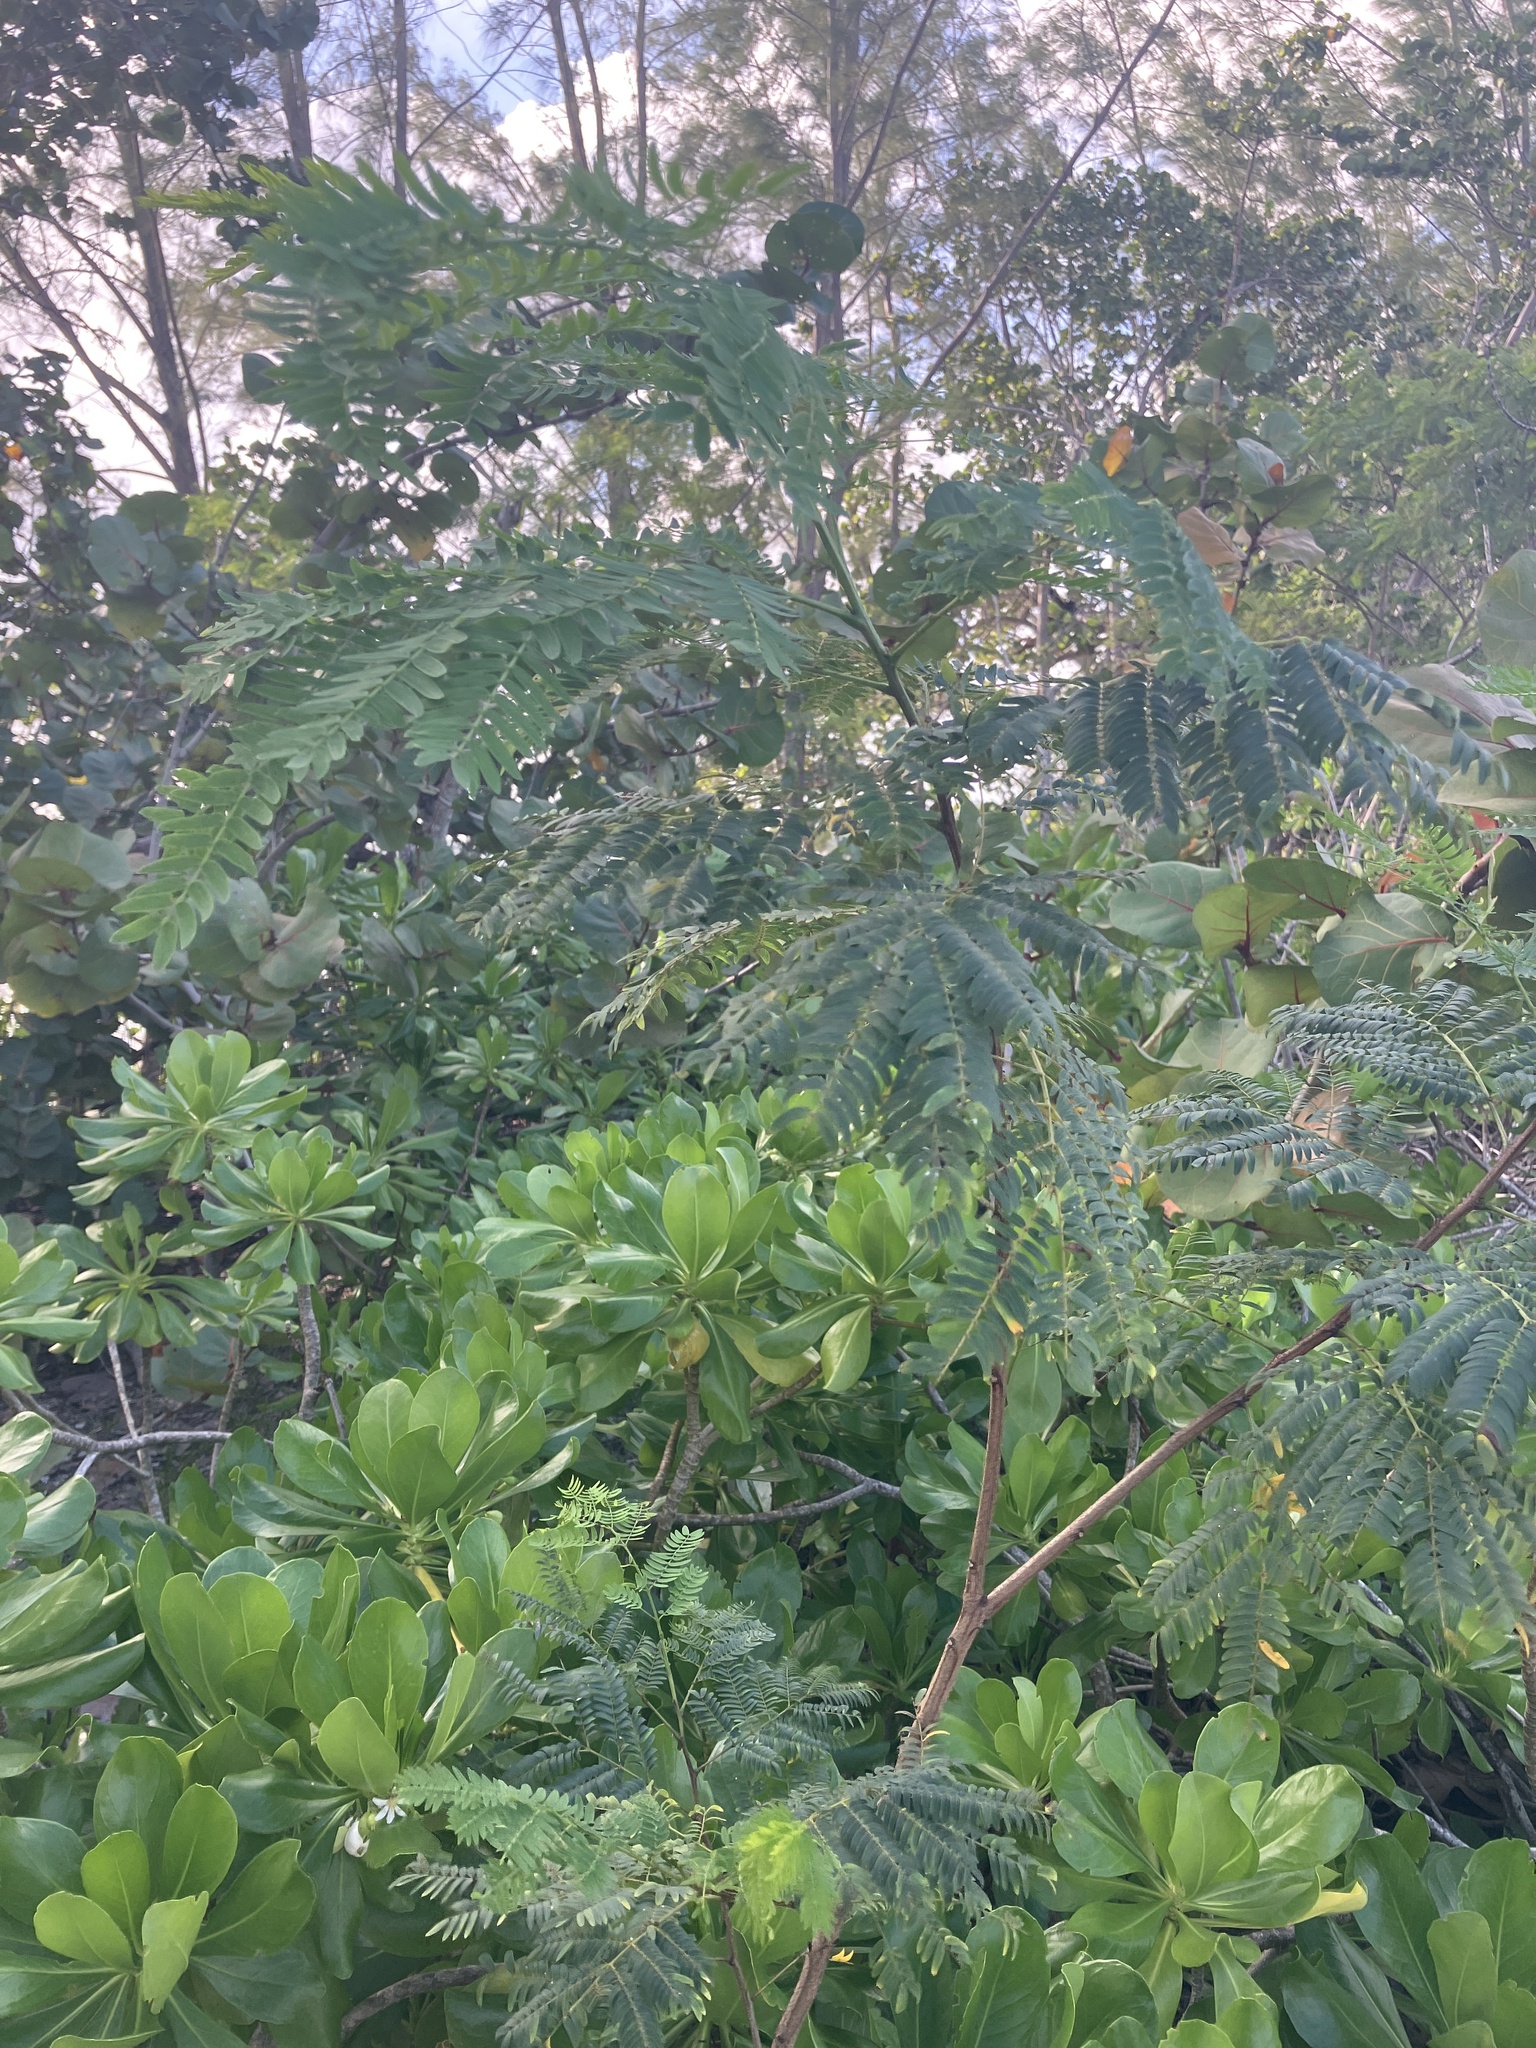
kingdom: Plantae
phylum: Tracheophyta
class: Magnoliopsida
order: Fabales
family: Fabaceae
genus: Leucaena
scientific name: Leucaena leucocephala
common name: White leadtree
